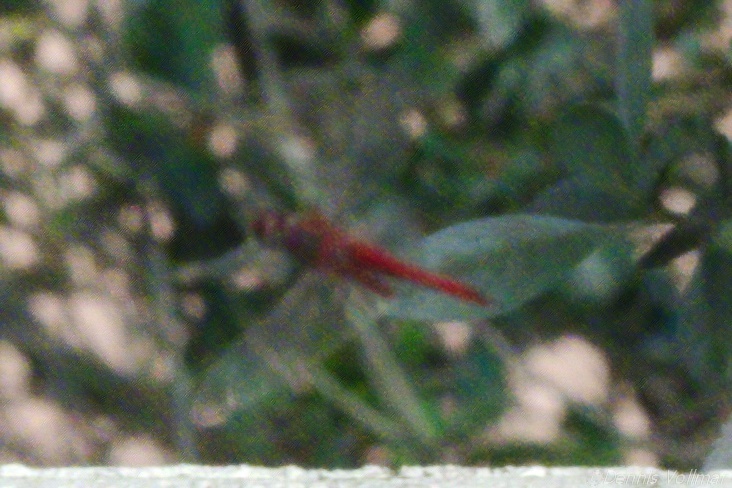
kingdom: Animalia
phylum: Arthropoda
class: Insecta
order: Odonata
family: Libellulidae
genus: Tramea
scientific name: Tramea abdominalis
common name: Vermilion saddlebags
